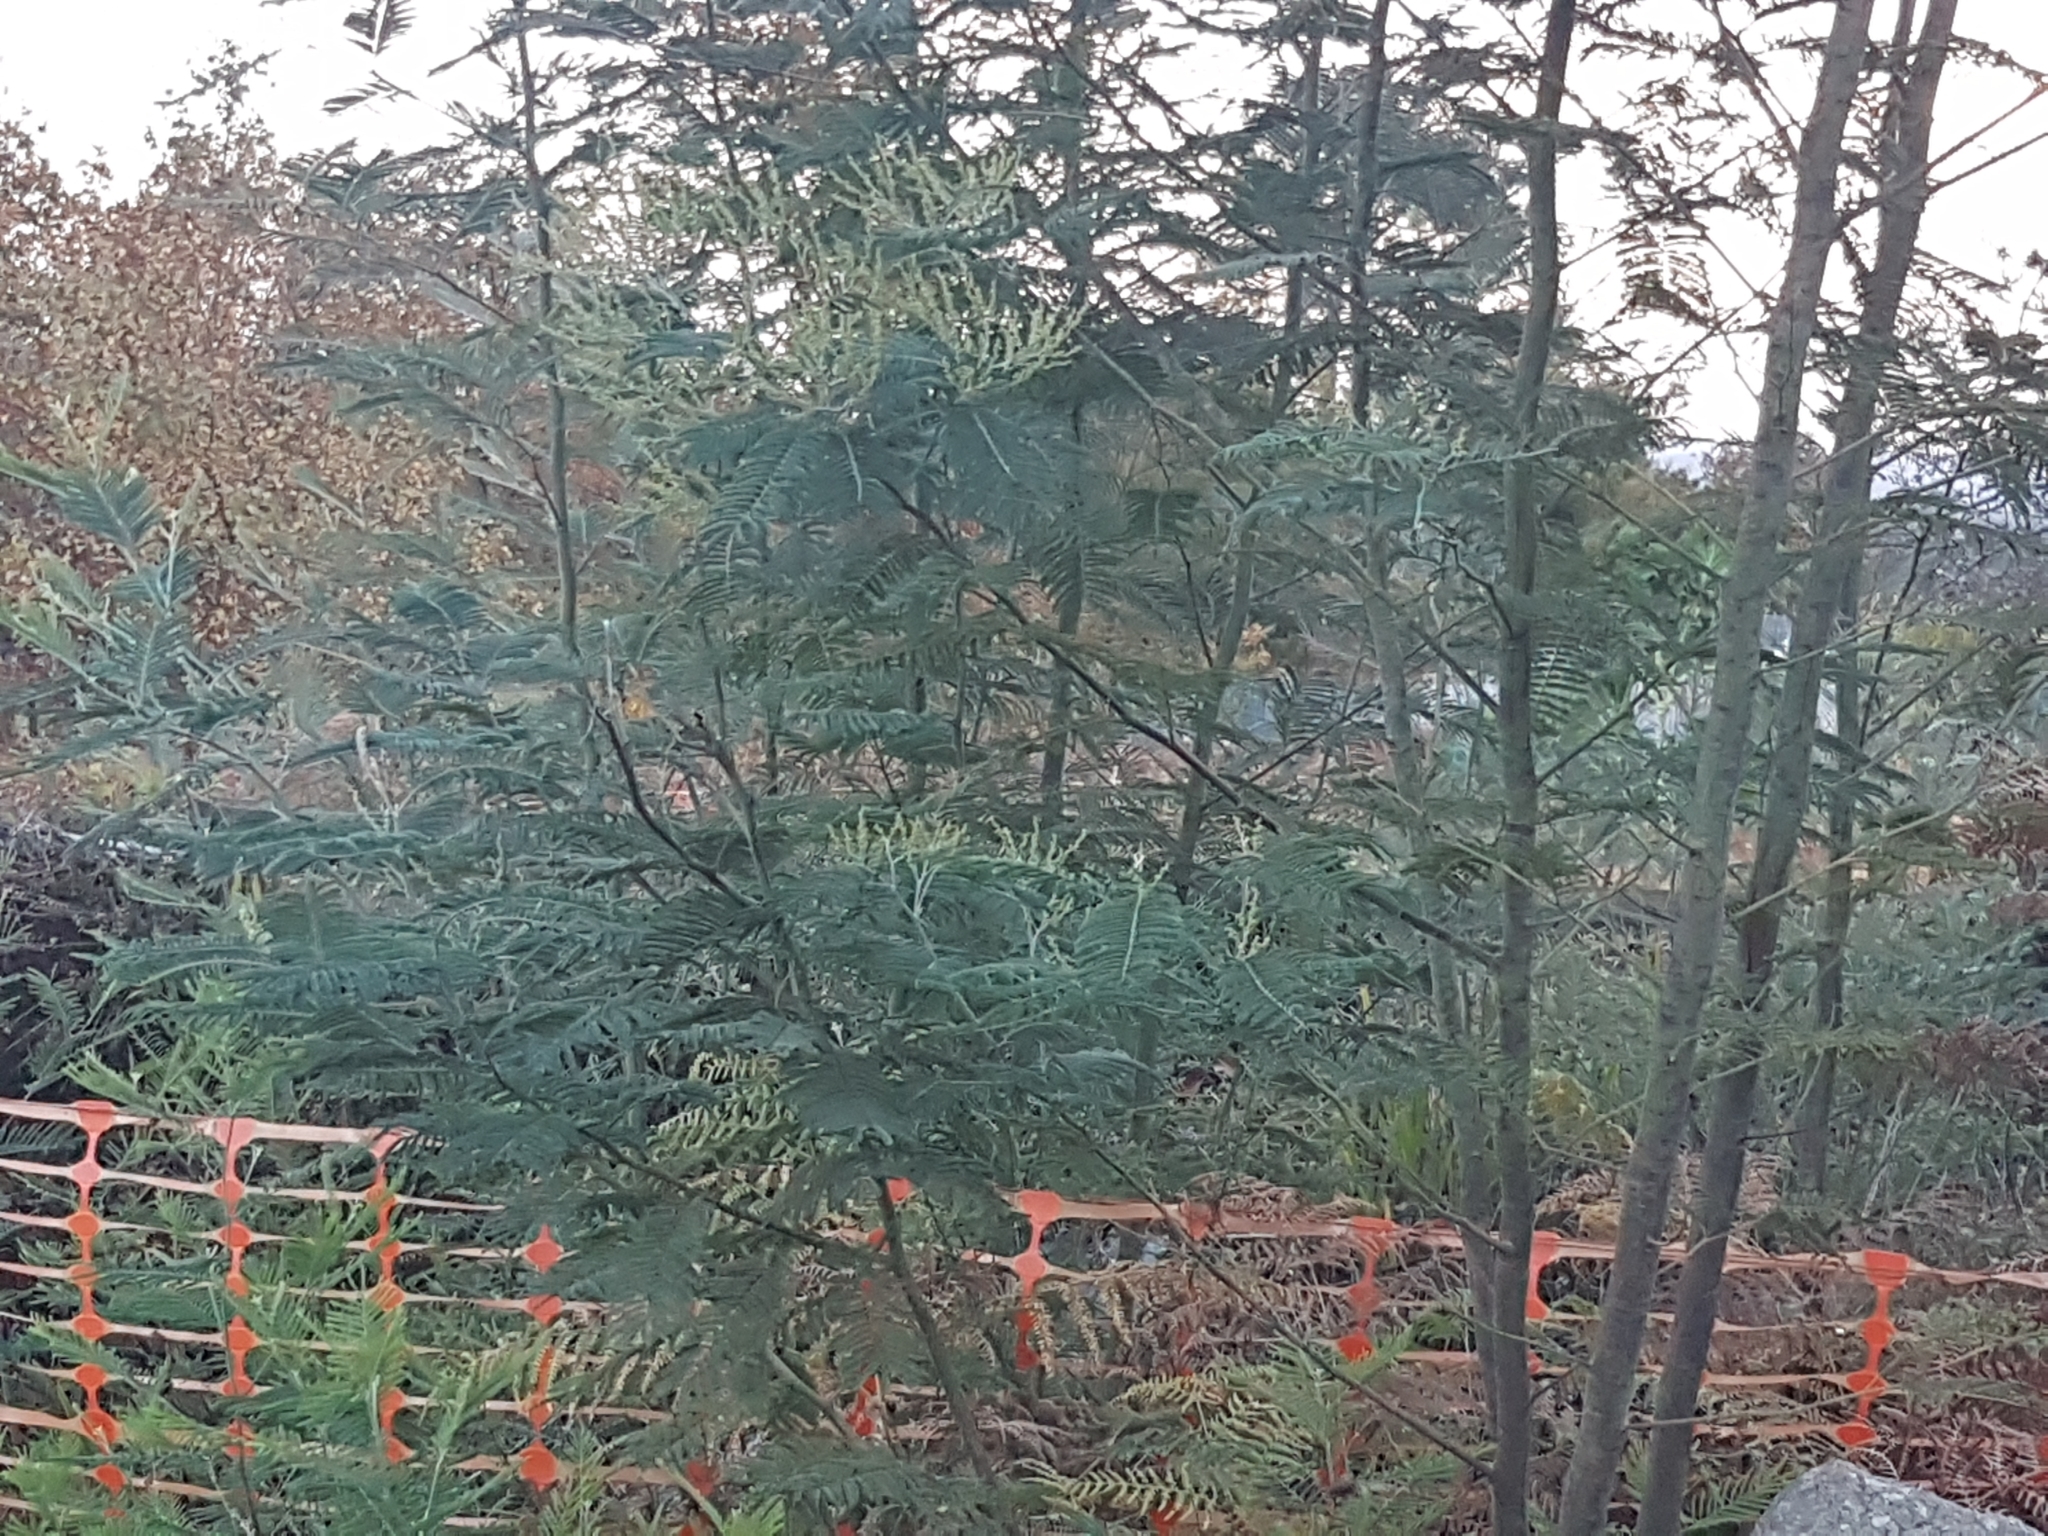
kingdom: Plantae
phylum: Tracheophyta
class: Magnoliopsida
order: Fabales
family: Fabaceae
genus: Acacia
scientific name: Acacia dealbata
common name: Silver wattle
